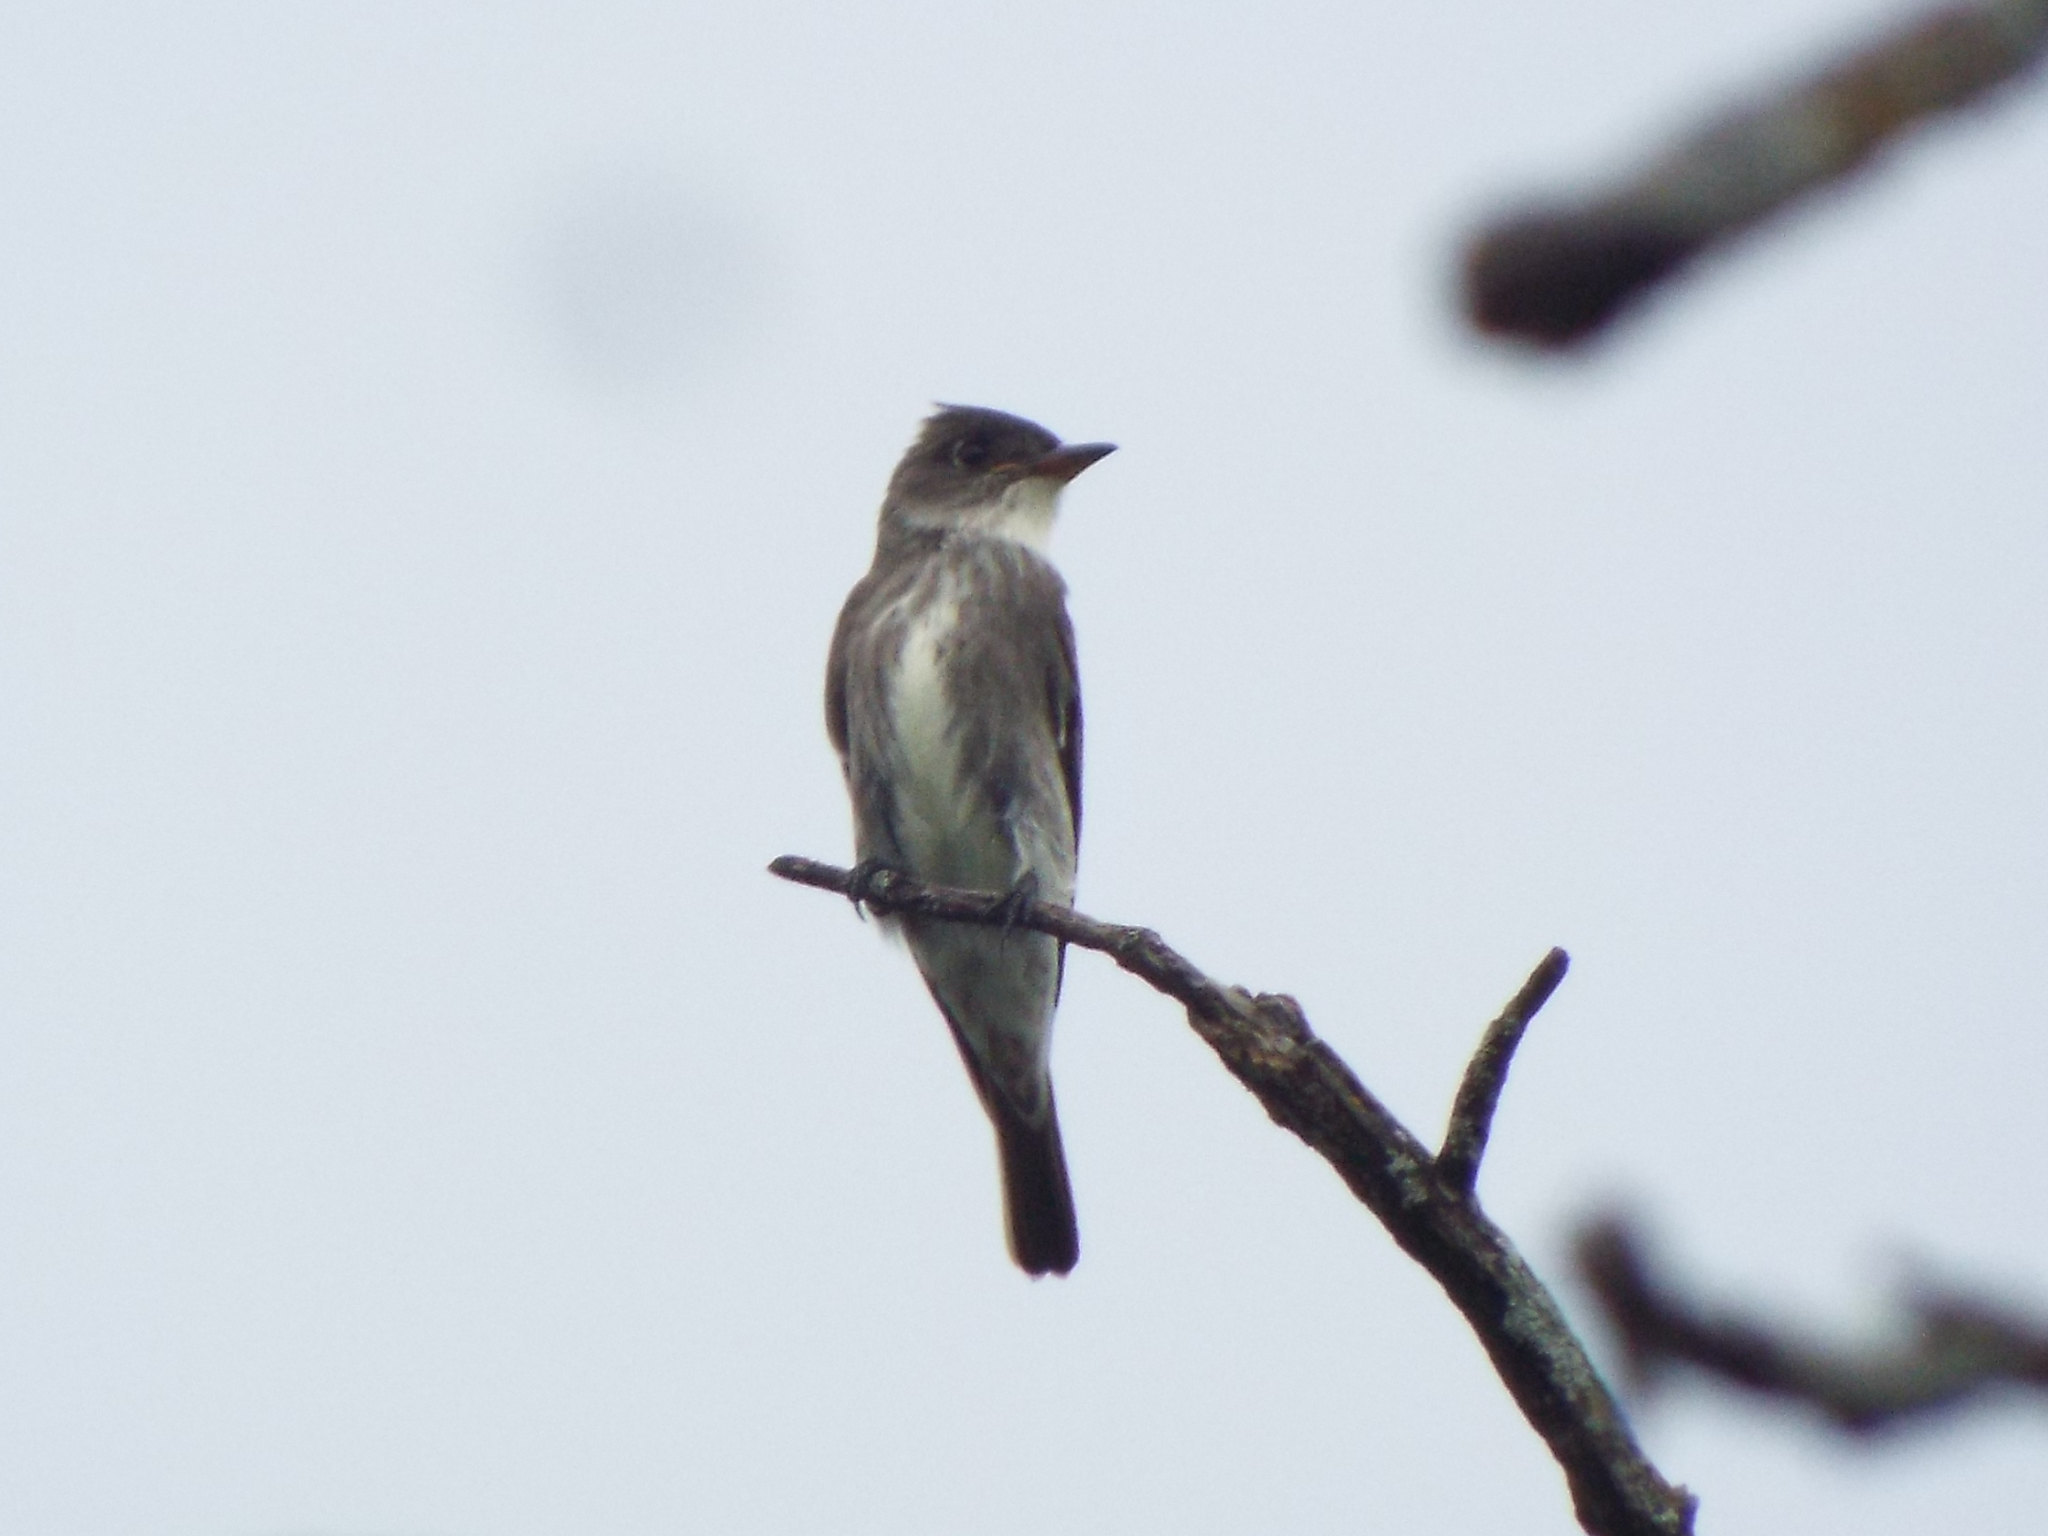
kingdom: Animalia
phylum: Chordata
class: Aves
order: Passeriformes
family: Tyrannidae
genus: Contopus
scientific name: Contopus cooperi
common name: Olive-sided flycatcher
